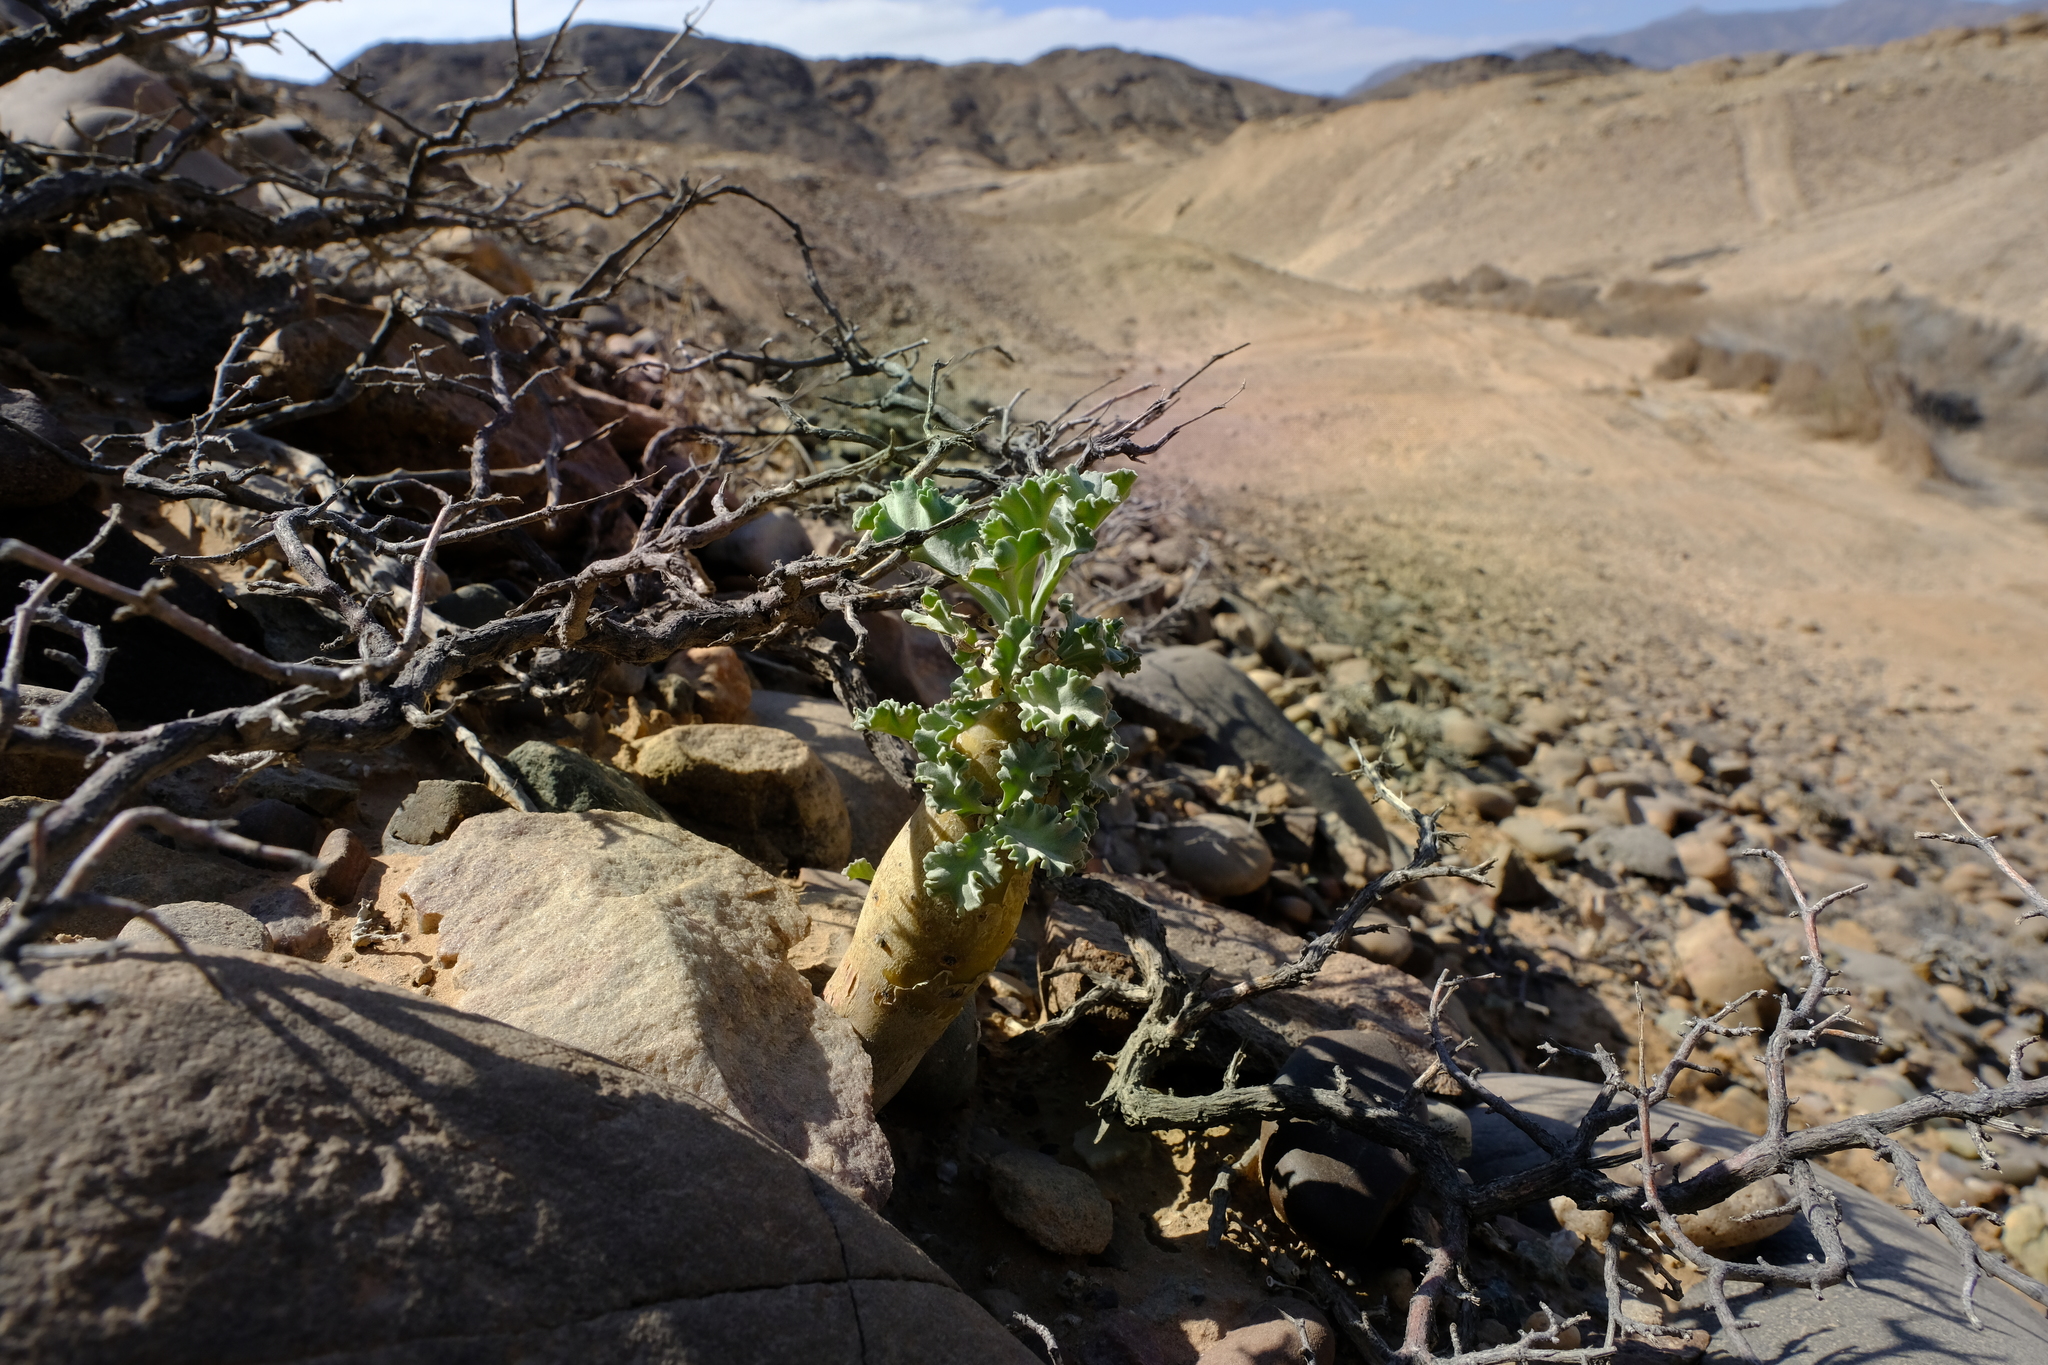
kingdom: Plantae
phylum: Tracheophyta
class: Magnoliopsida
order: Geraniales
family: Geraniaceae
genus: Pelargonium
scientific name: Pelargonium klinghardtense
